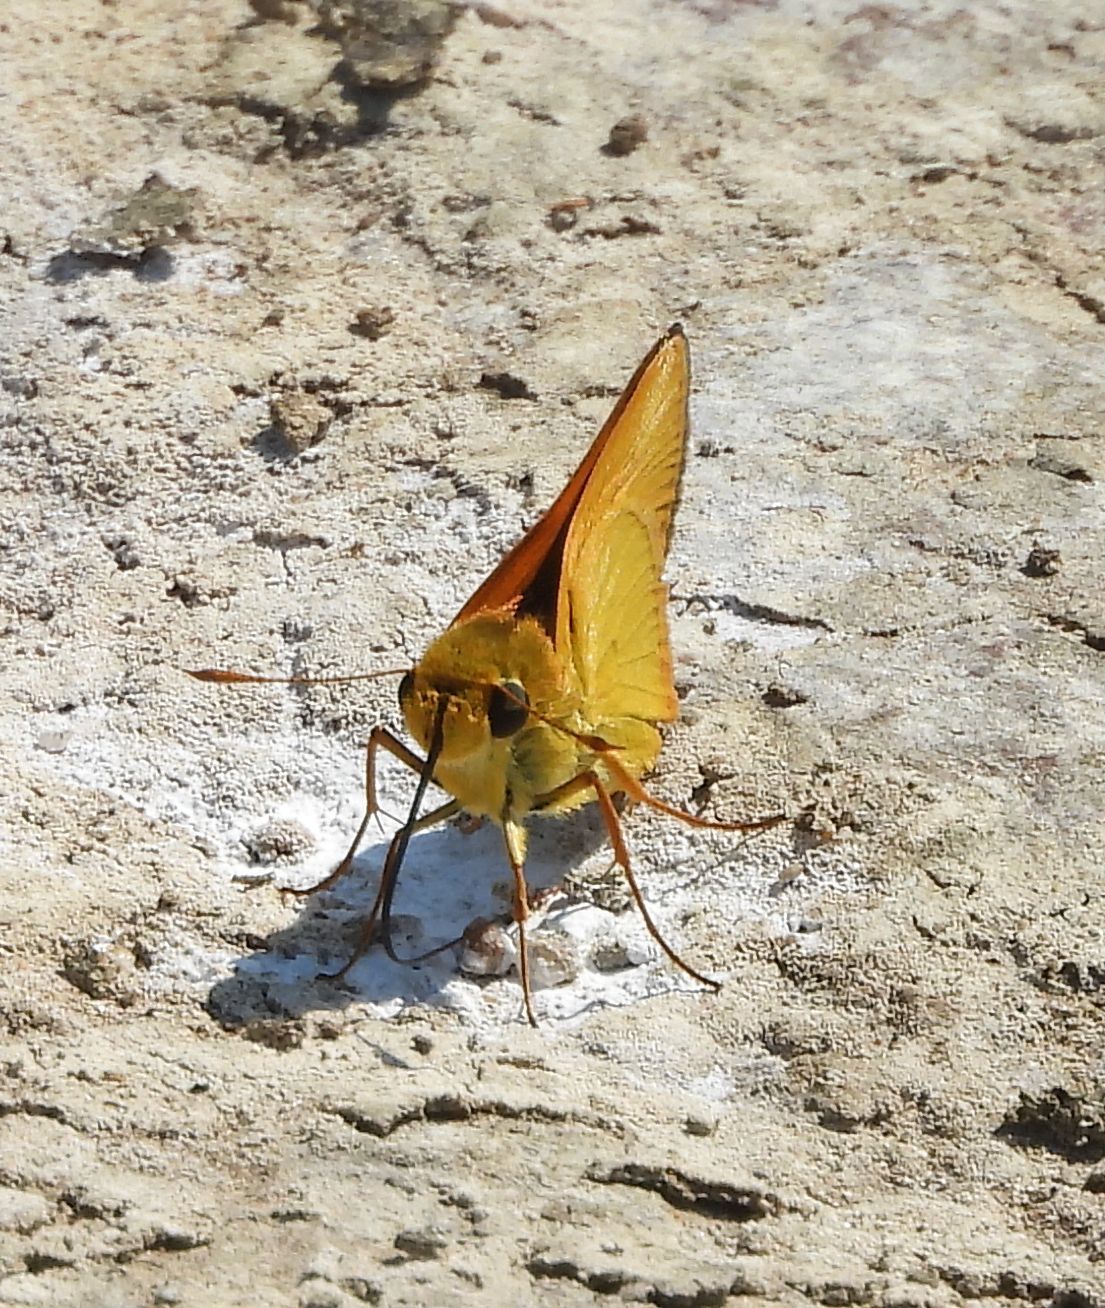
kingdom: Animalia
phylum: Arthropoda
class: Insecta
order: Lepidoptera
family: Hesperiidae
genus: Atrytone
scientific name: Atrytone delaware
